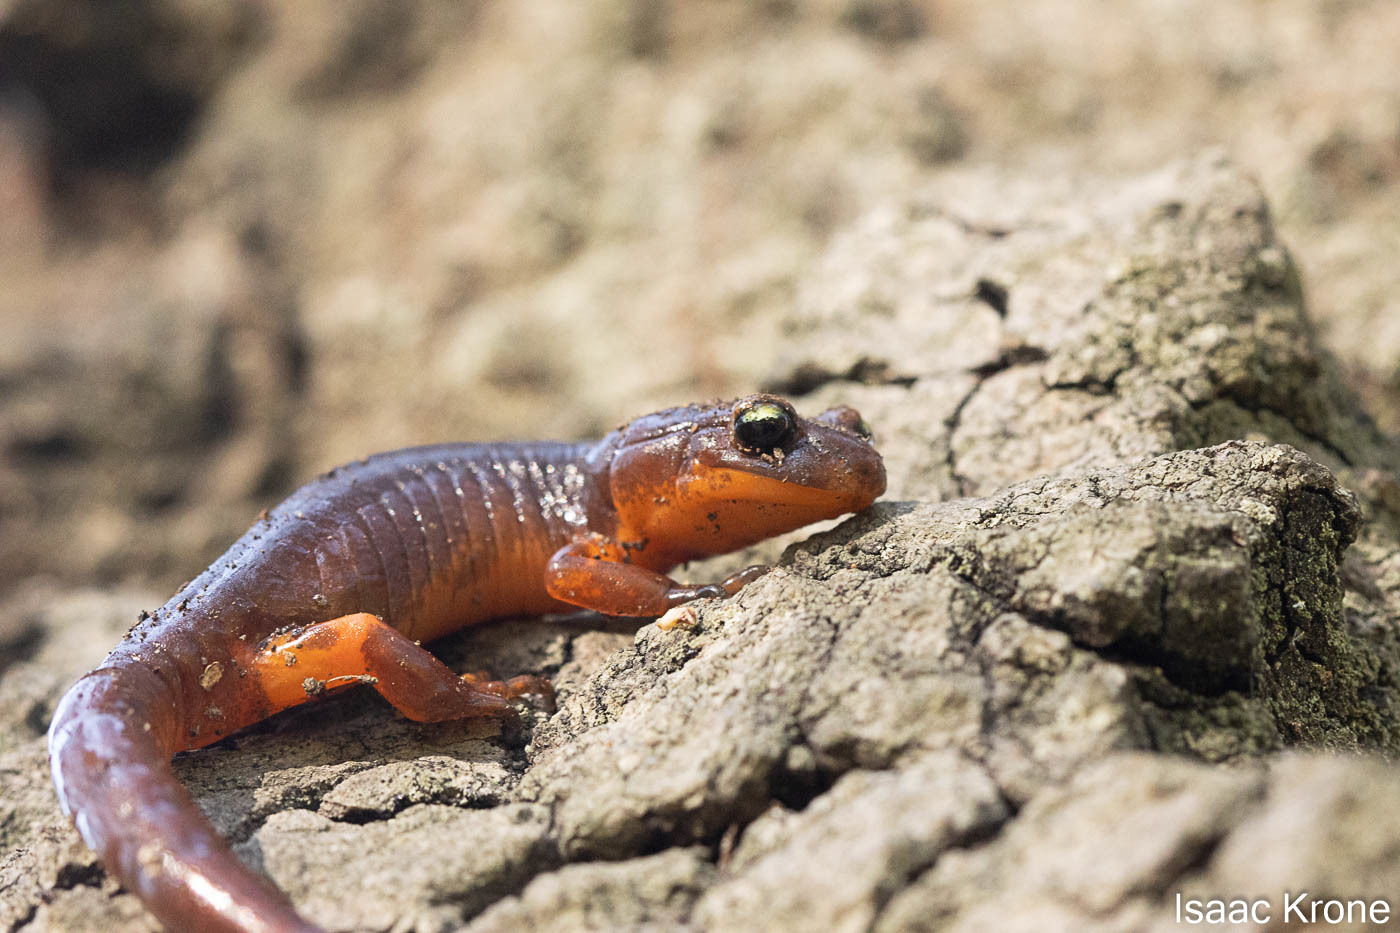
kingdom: Animalia
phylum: Chordata
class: Amphibia
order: Caudata
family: Plethodontidae
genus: Ensatina
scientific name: Ensatina eschscholtzii
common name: Ensatina
